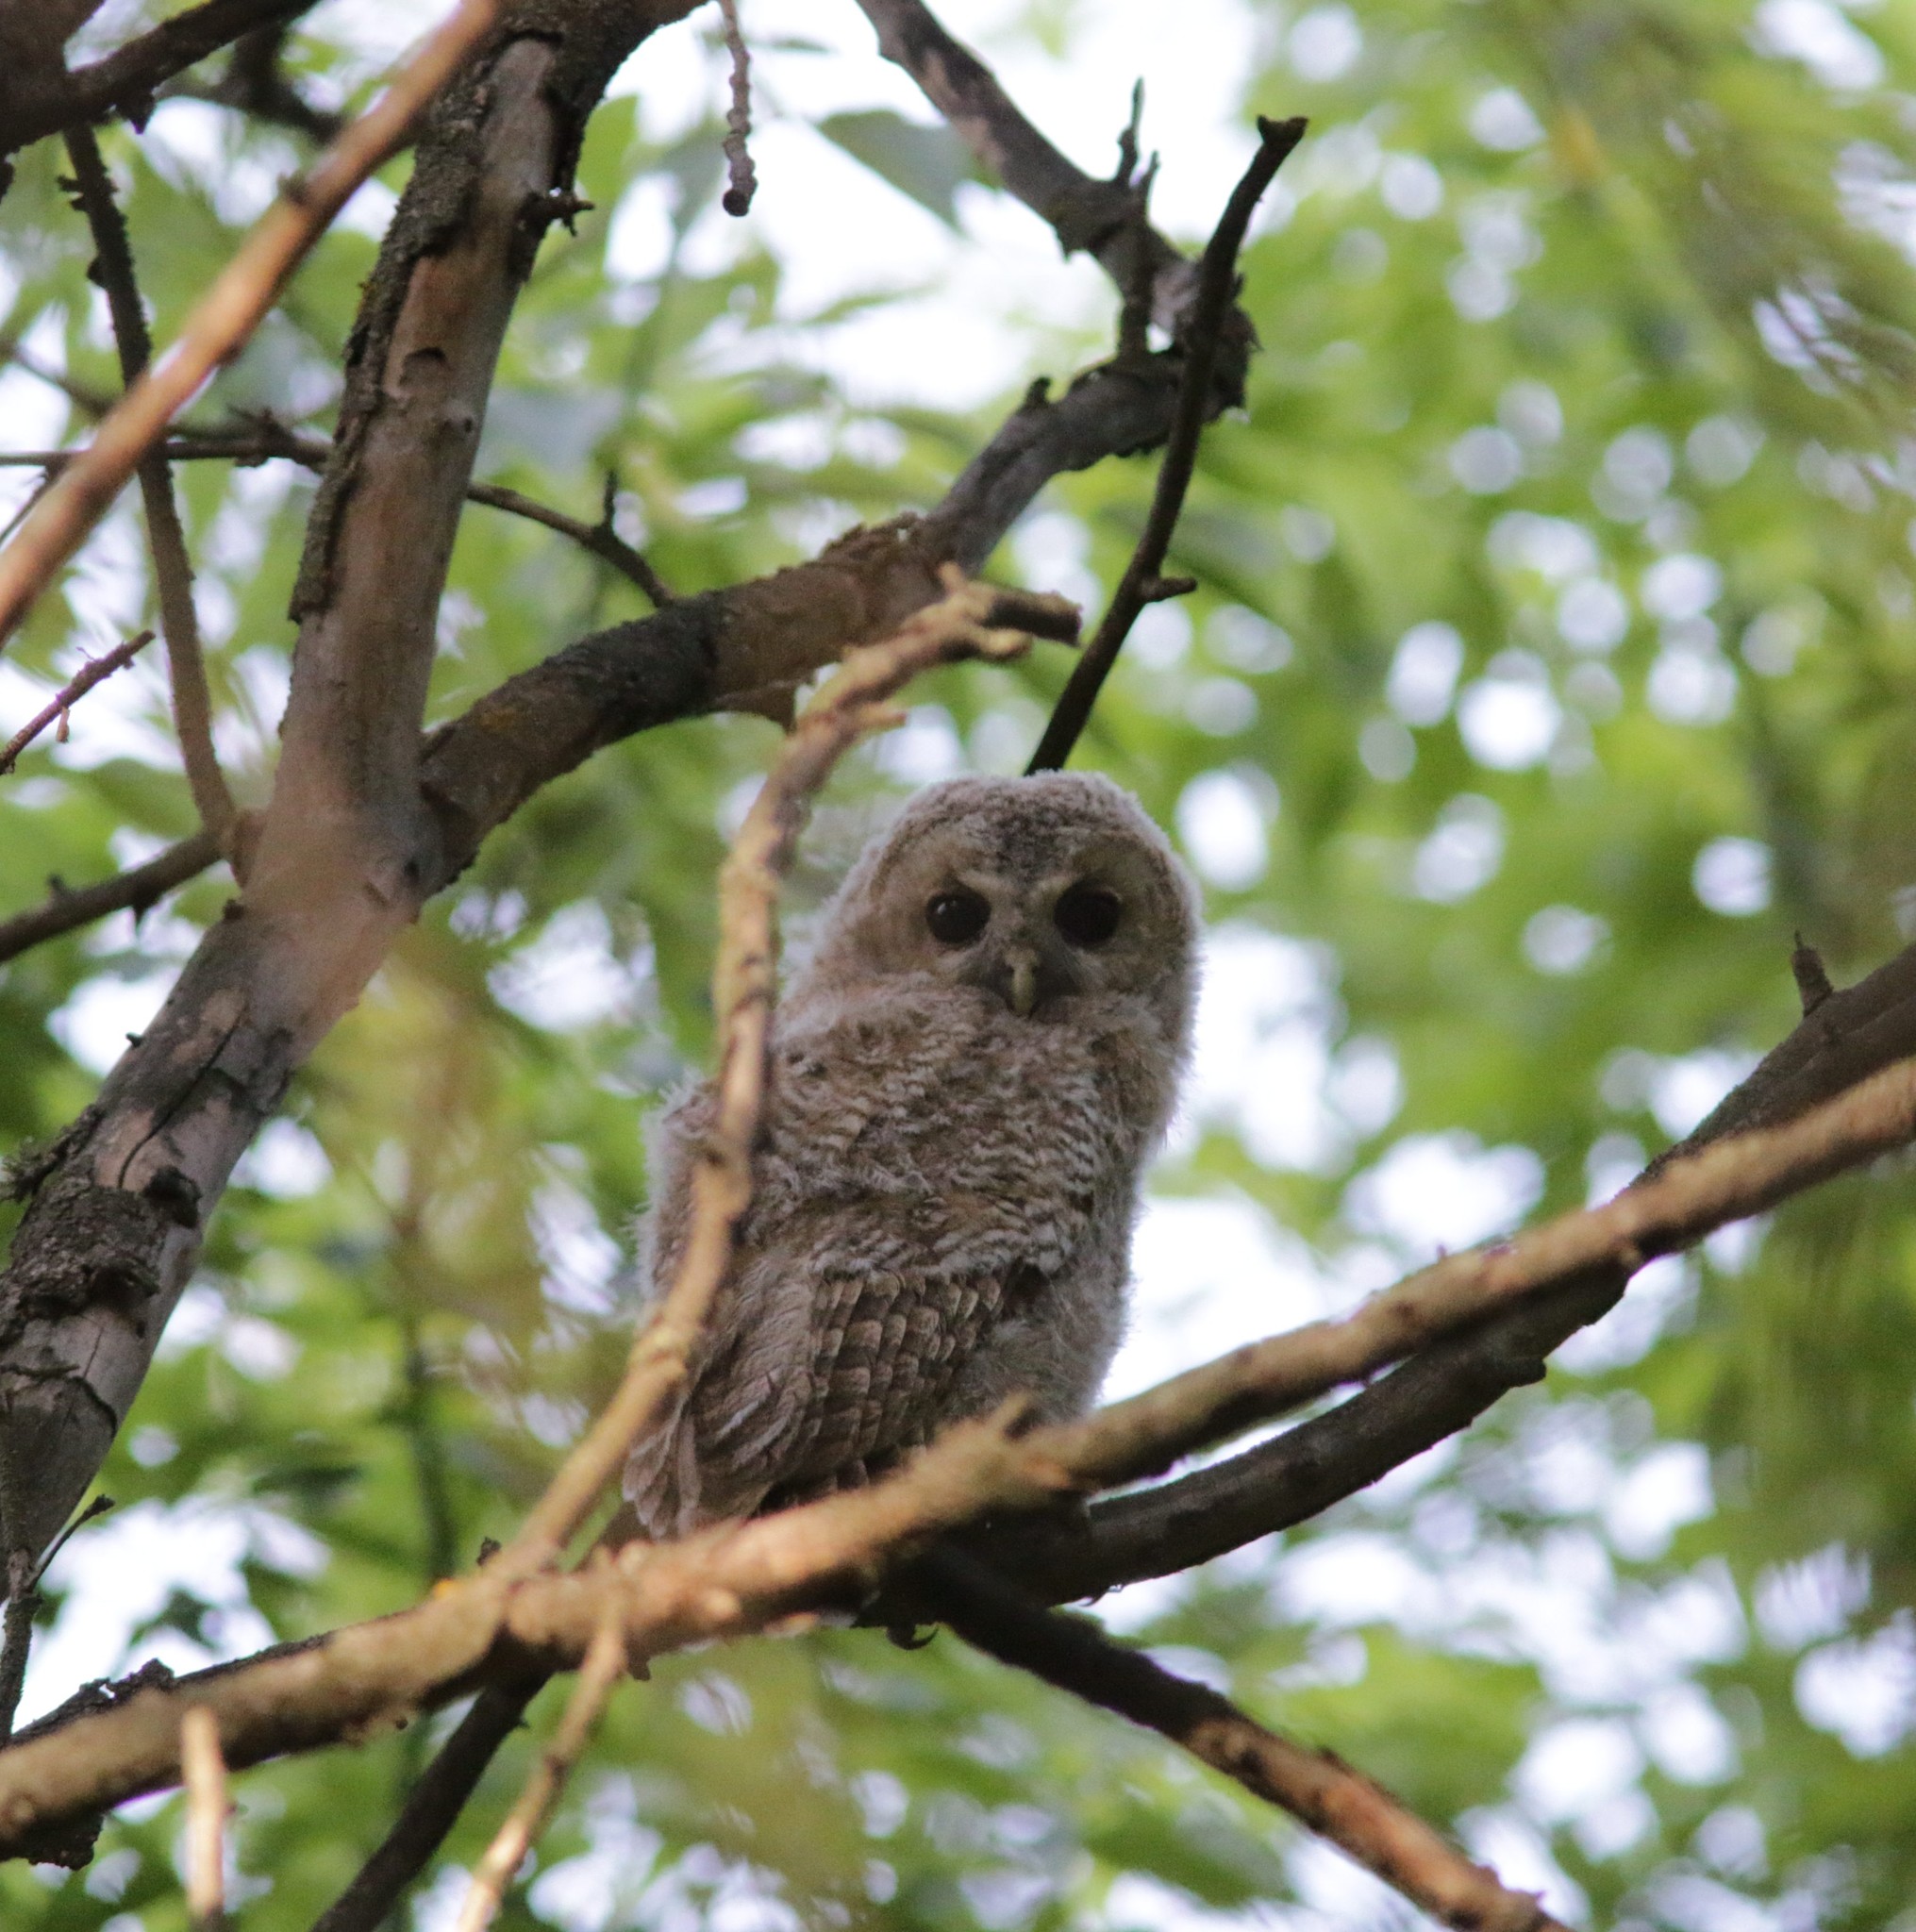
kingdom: Animalia
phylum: Chordata
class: Aves
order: Strigiformes
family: Strigidae
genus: Strix
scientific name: Strix aluco
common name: Tawny owl
